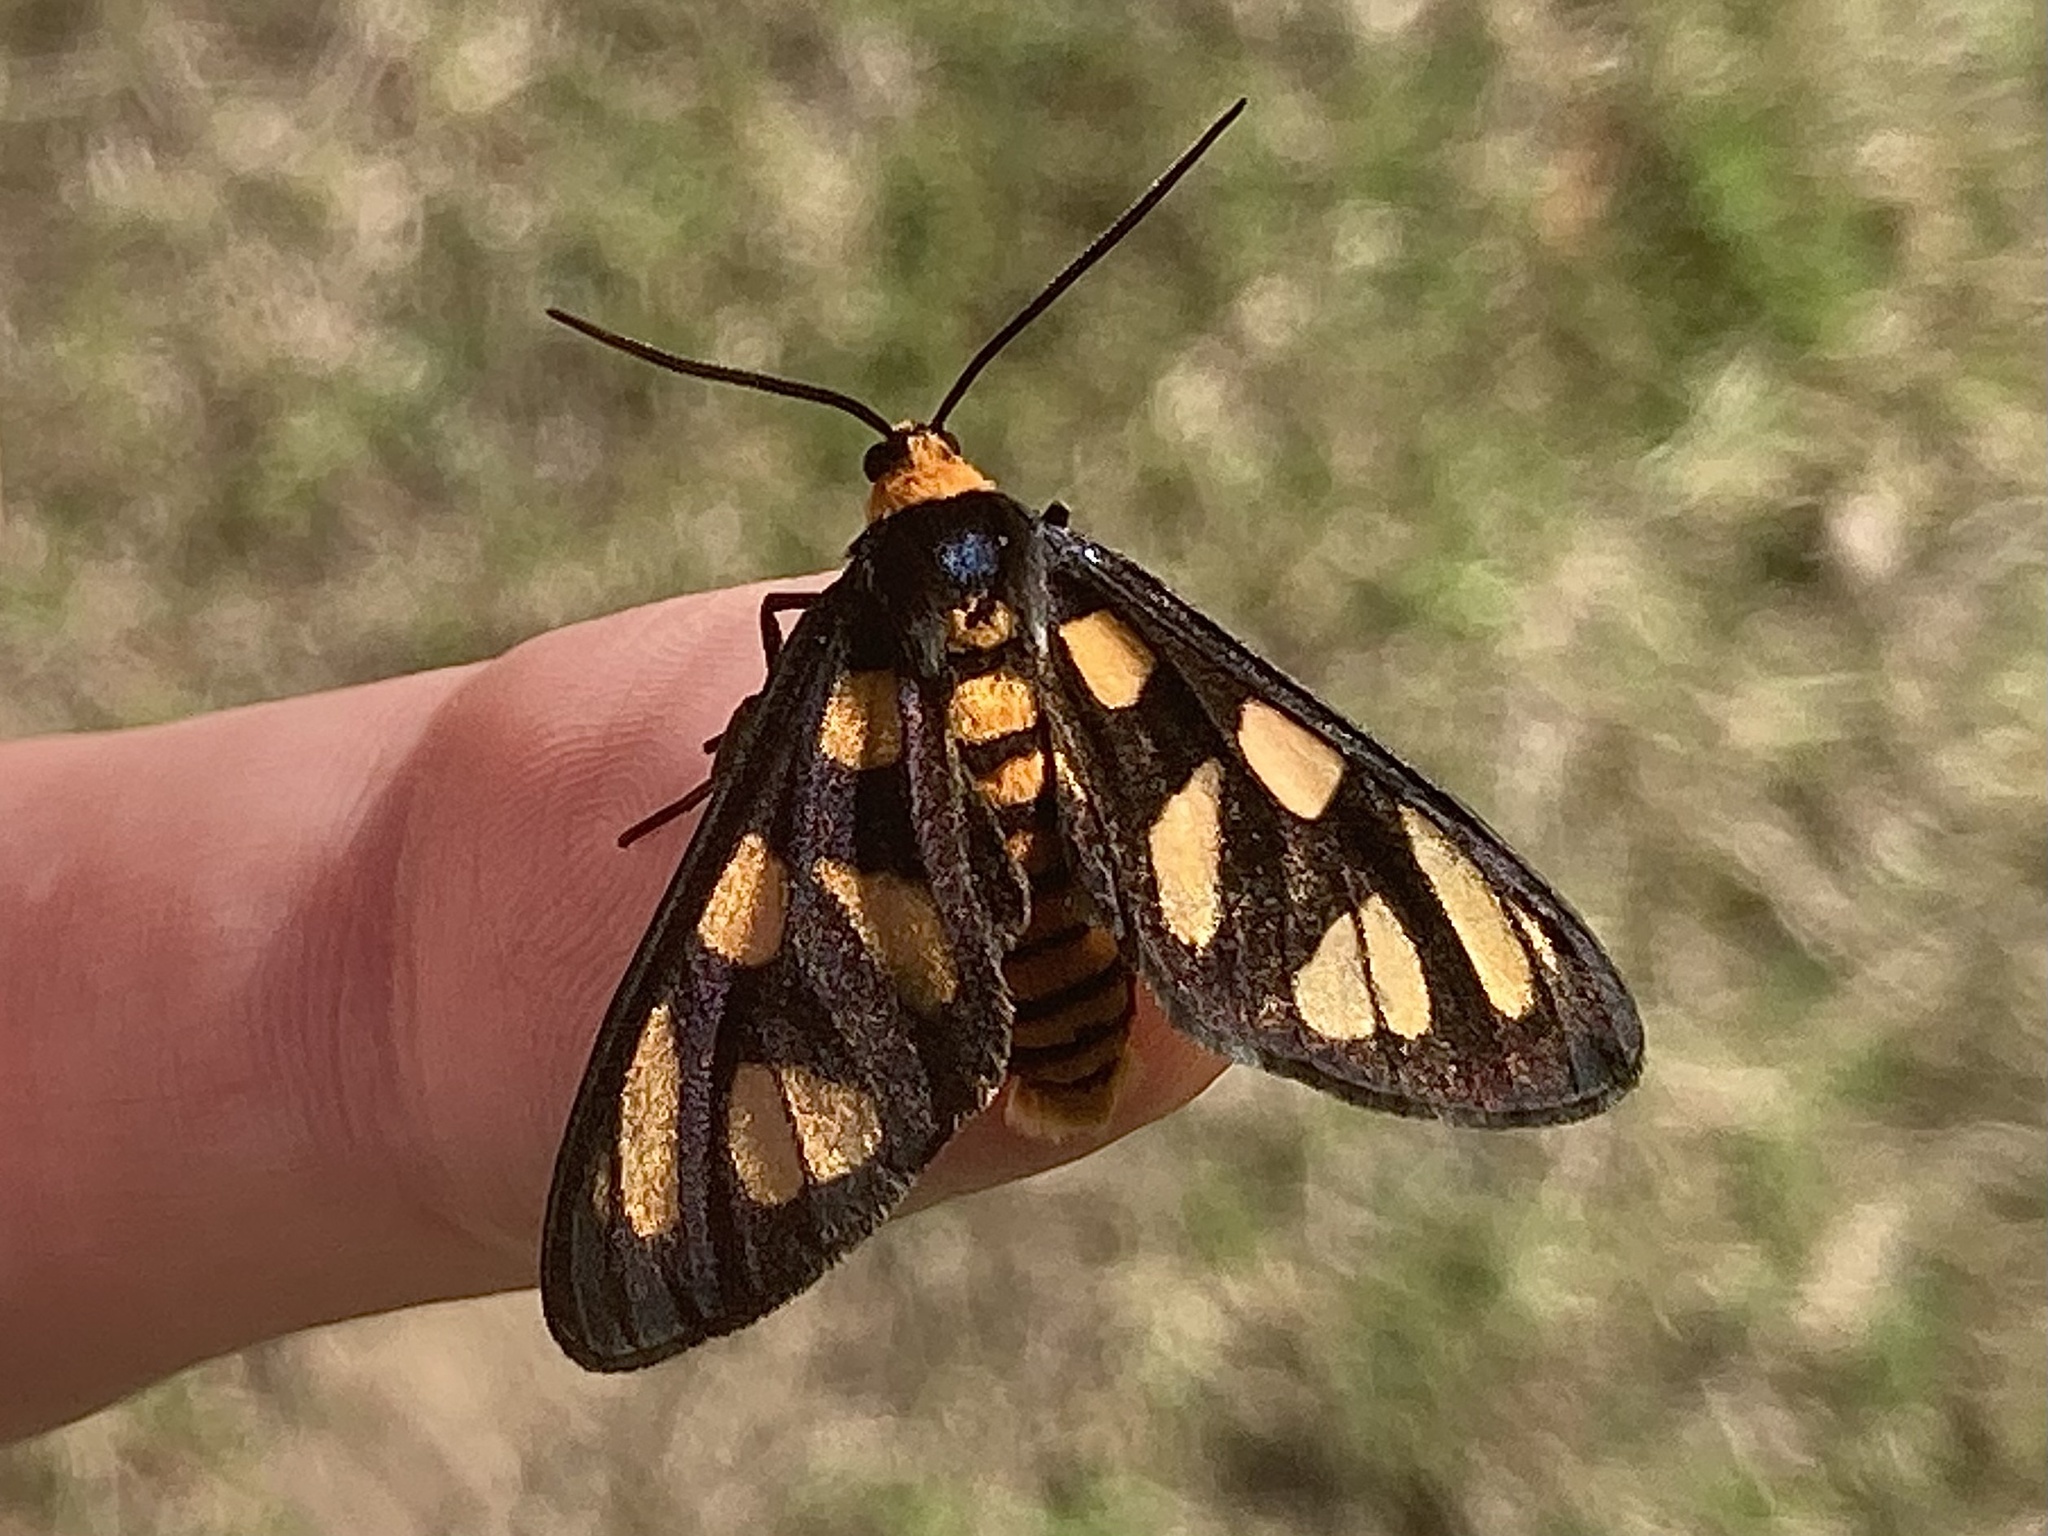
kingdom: Animalia
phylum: Arthropoda
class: Insecta
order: Lepidoptera
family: Erebidae
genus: Amata
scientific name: Amata aperta
